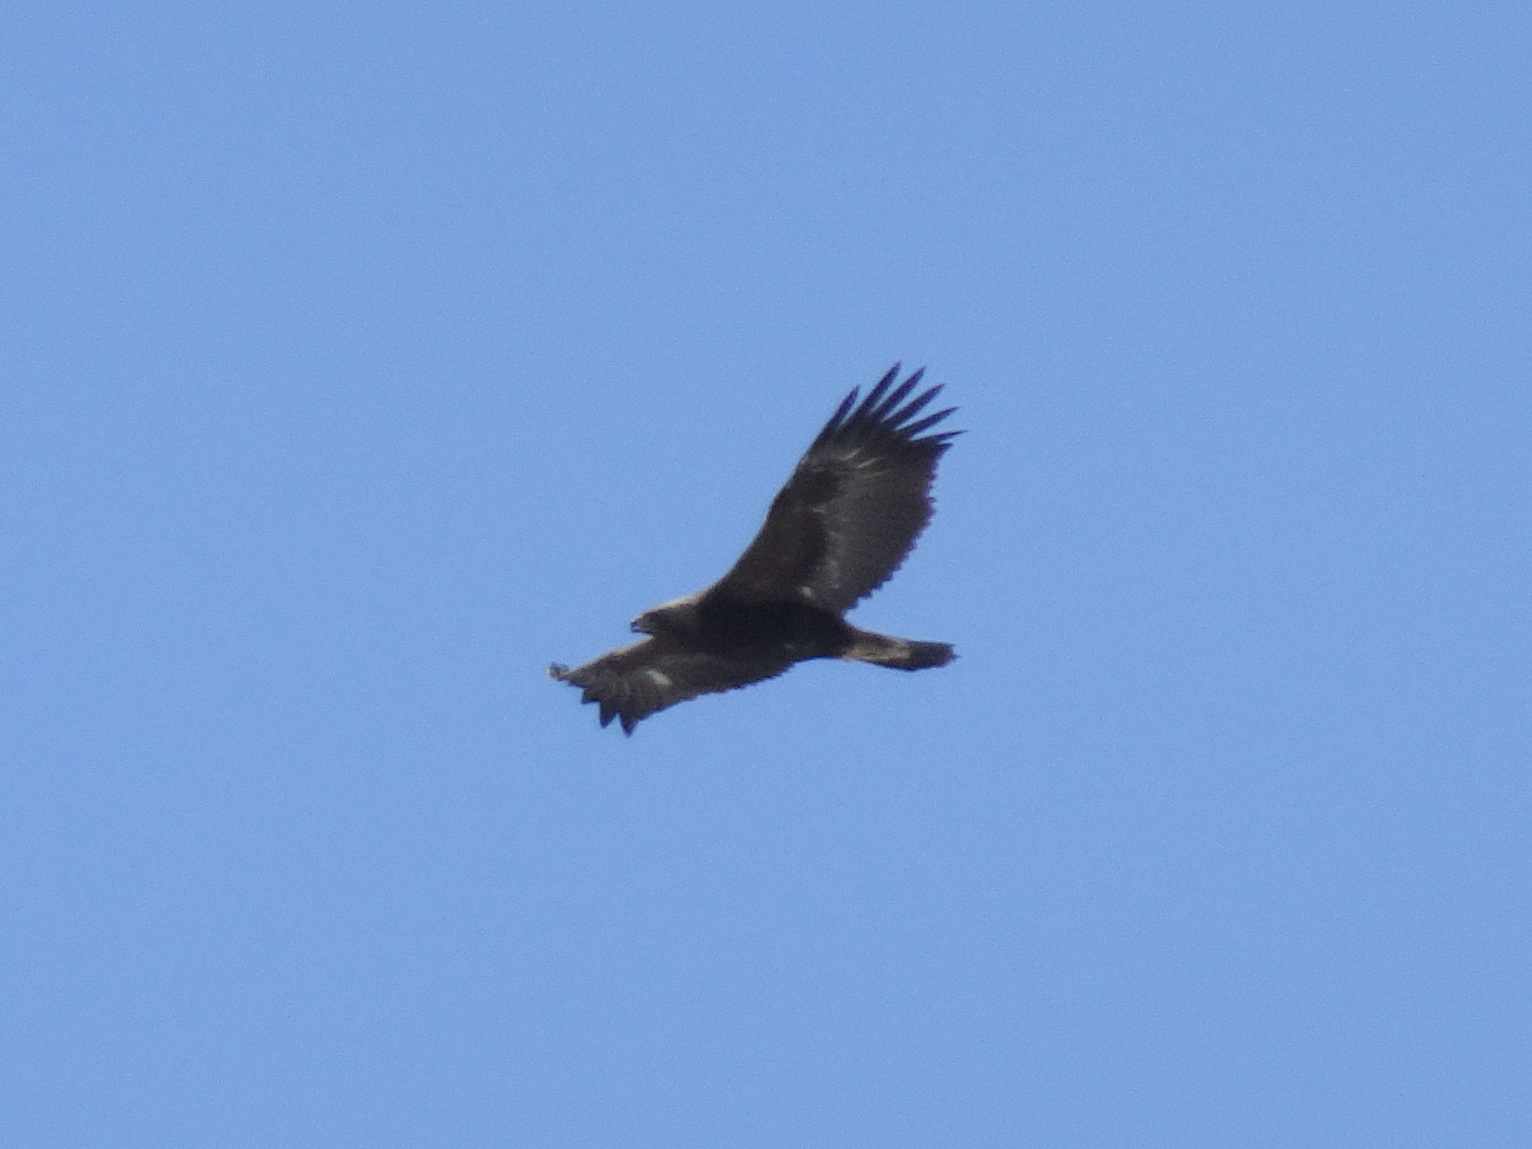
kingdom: Animalia
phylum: Chordata
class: Aves
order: Accipitriformes
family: Accipitridae
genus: Aquila
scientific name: Aquila chrysaetos
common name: Golden eagle
